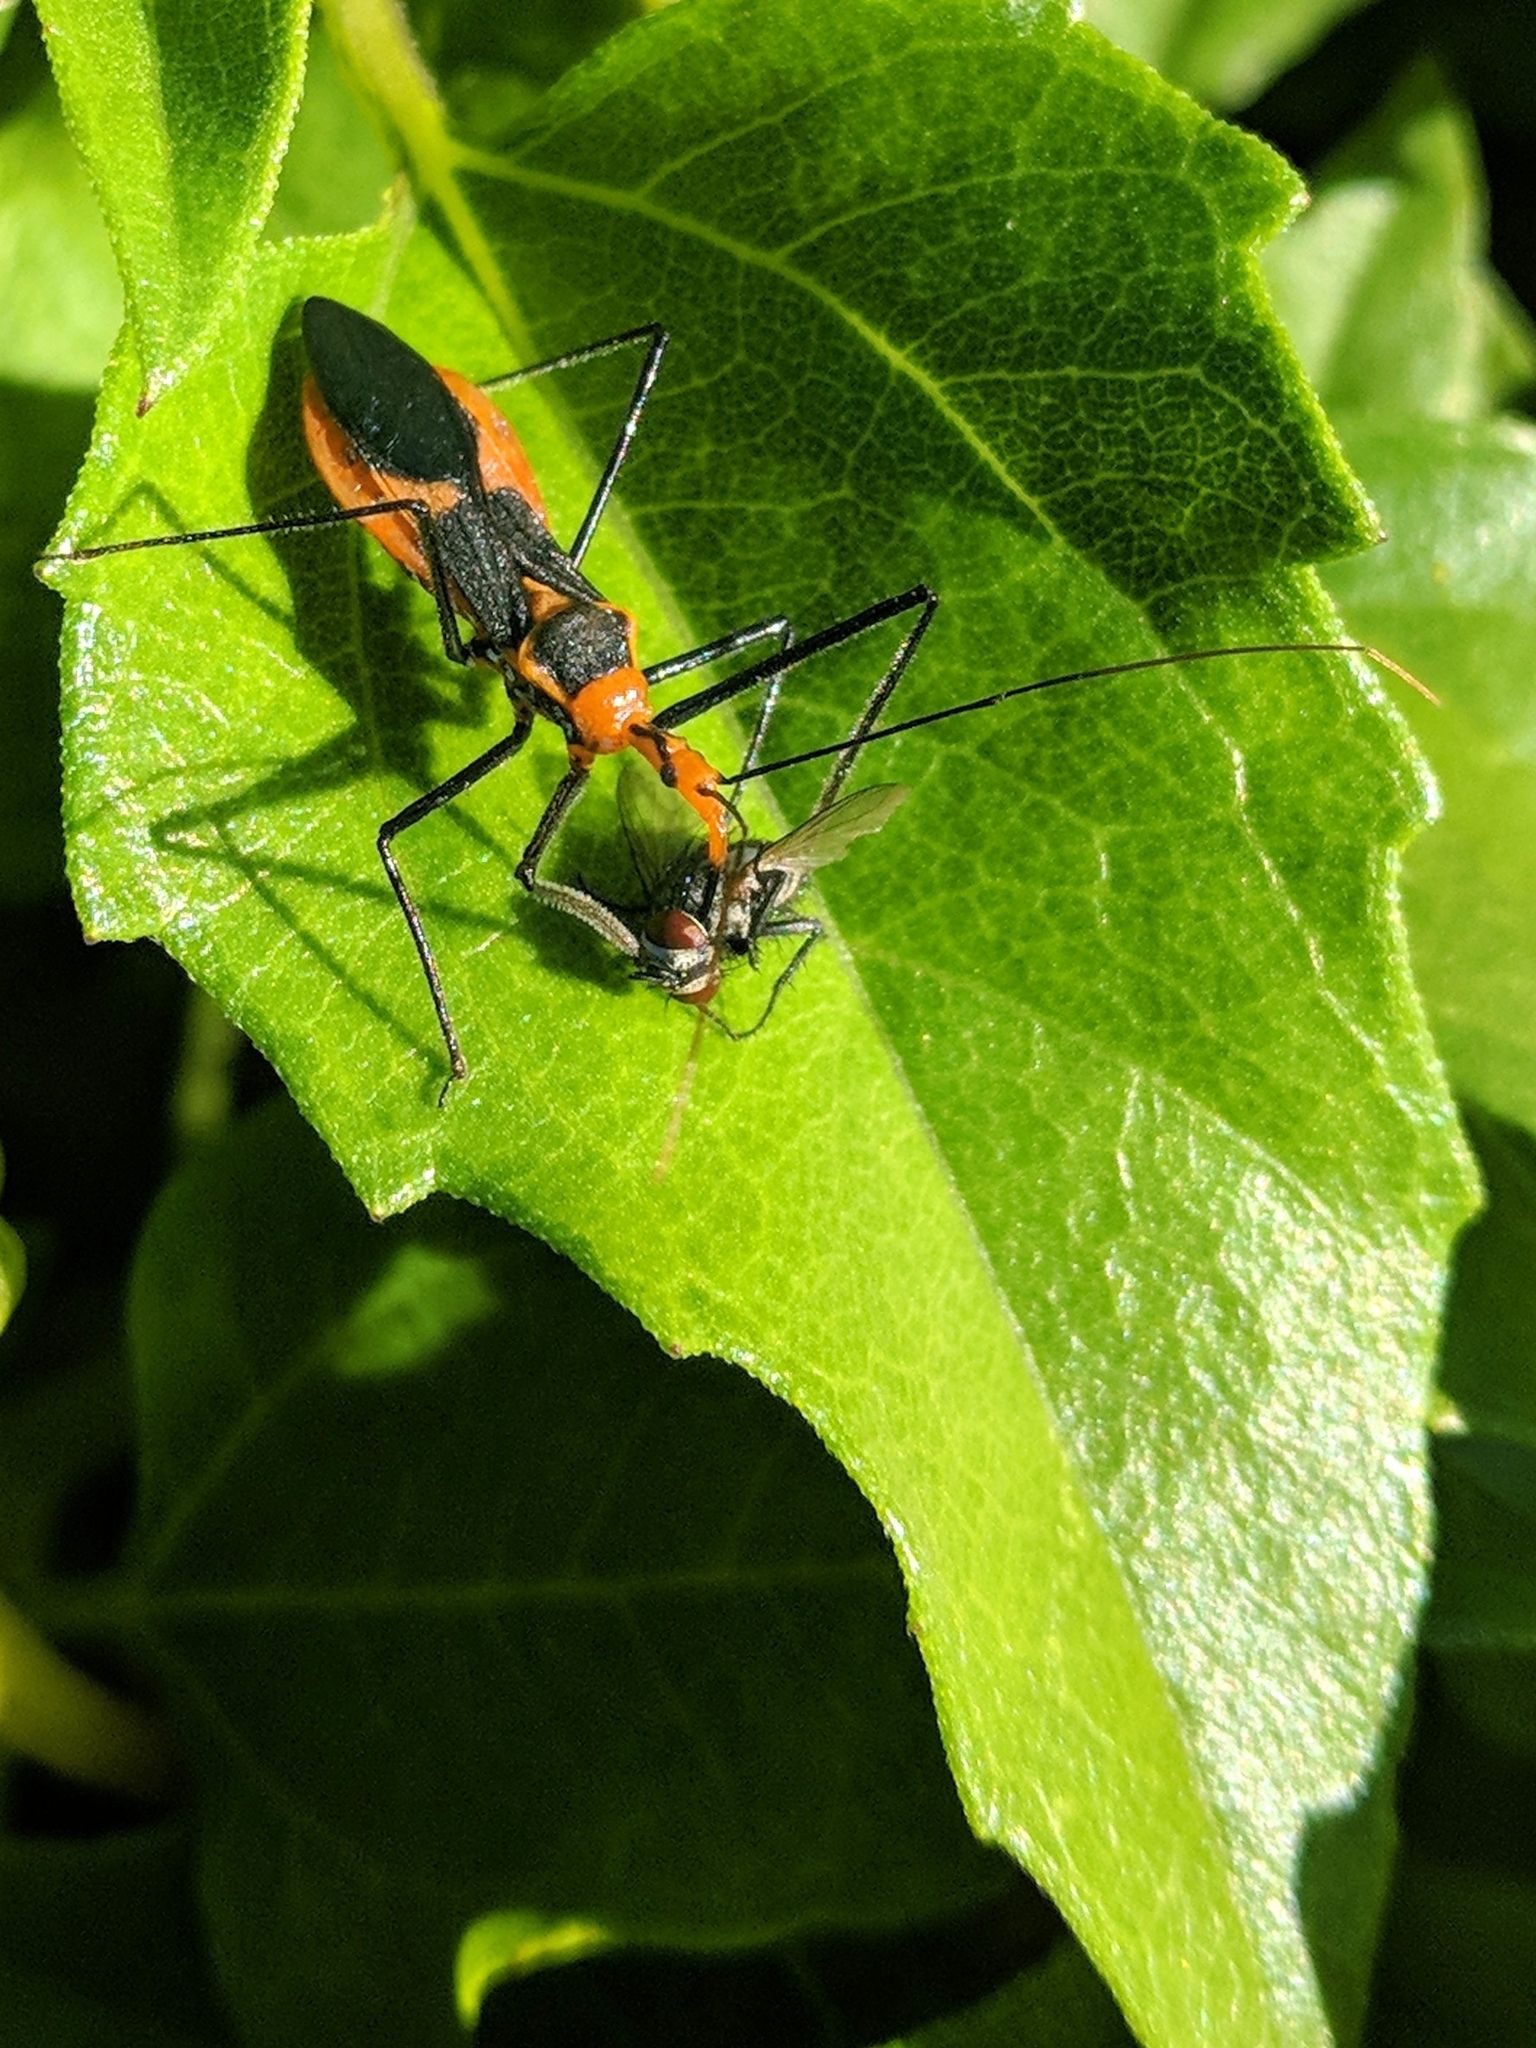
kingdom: Animalia
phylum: Arthropoda
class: Insecta
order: Hemiptera
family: Reduviidae
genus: Zelus
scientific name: Zelus longipes
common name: Milkweed assassin bug
